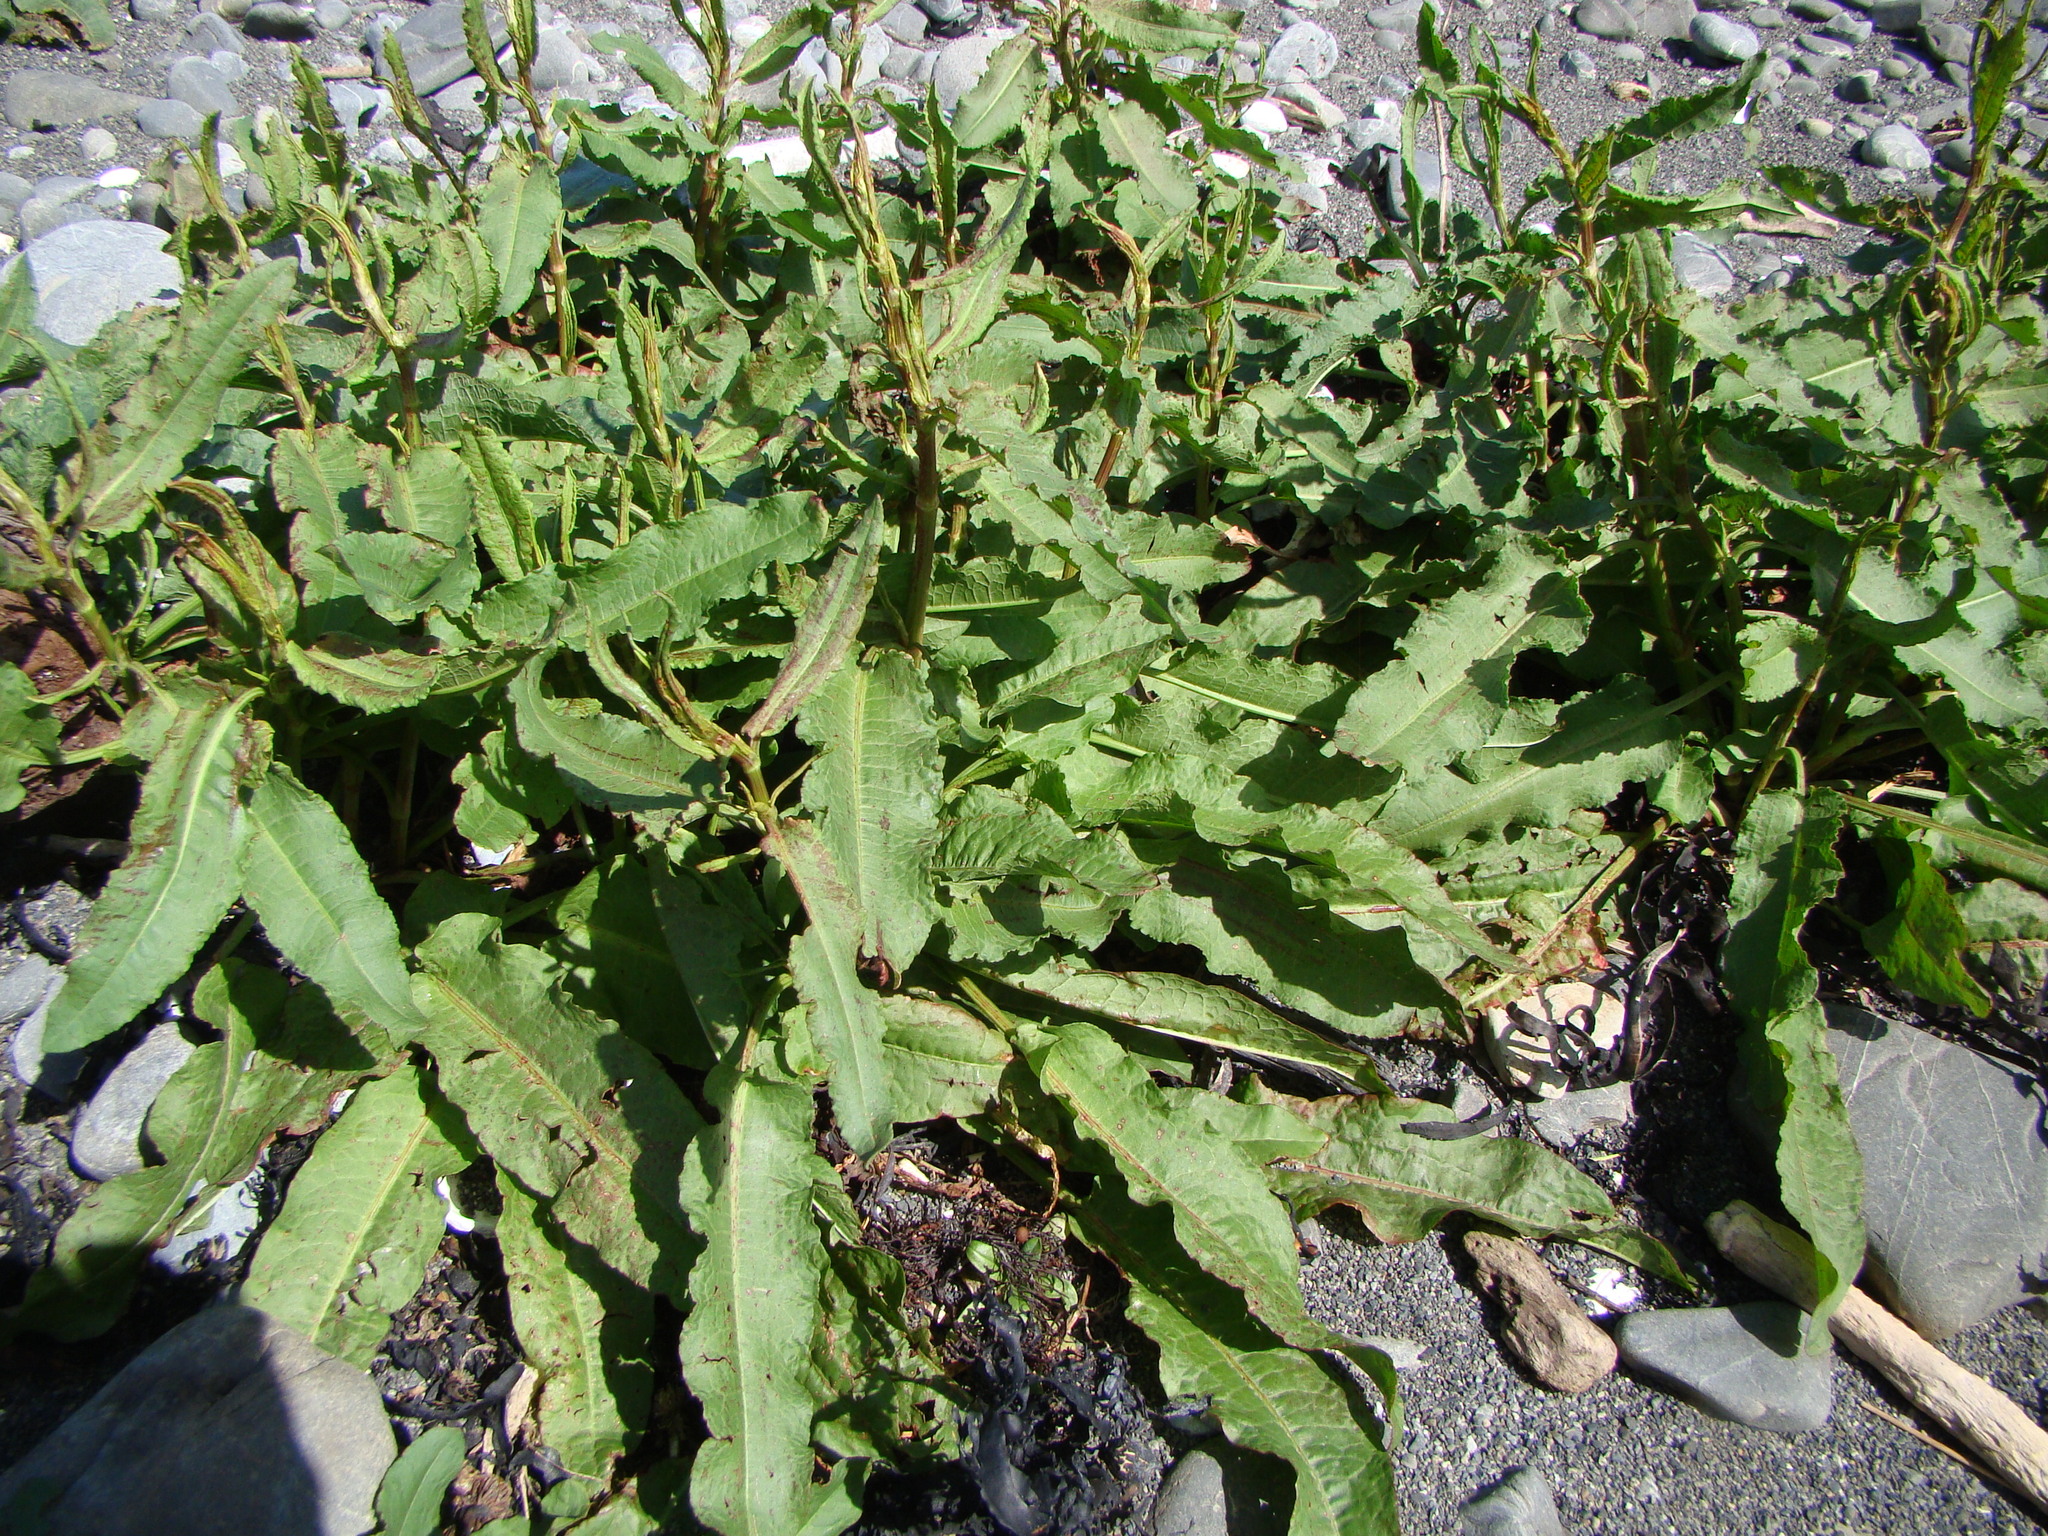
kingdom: Plantae
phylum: Tracheophyta
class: Magnoliopsida
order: Caryophyllales
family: Polygonaceae
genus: Rumex
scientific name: Rumex crispus
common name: Curled dock
